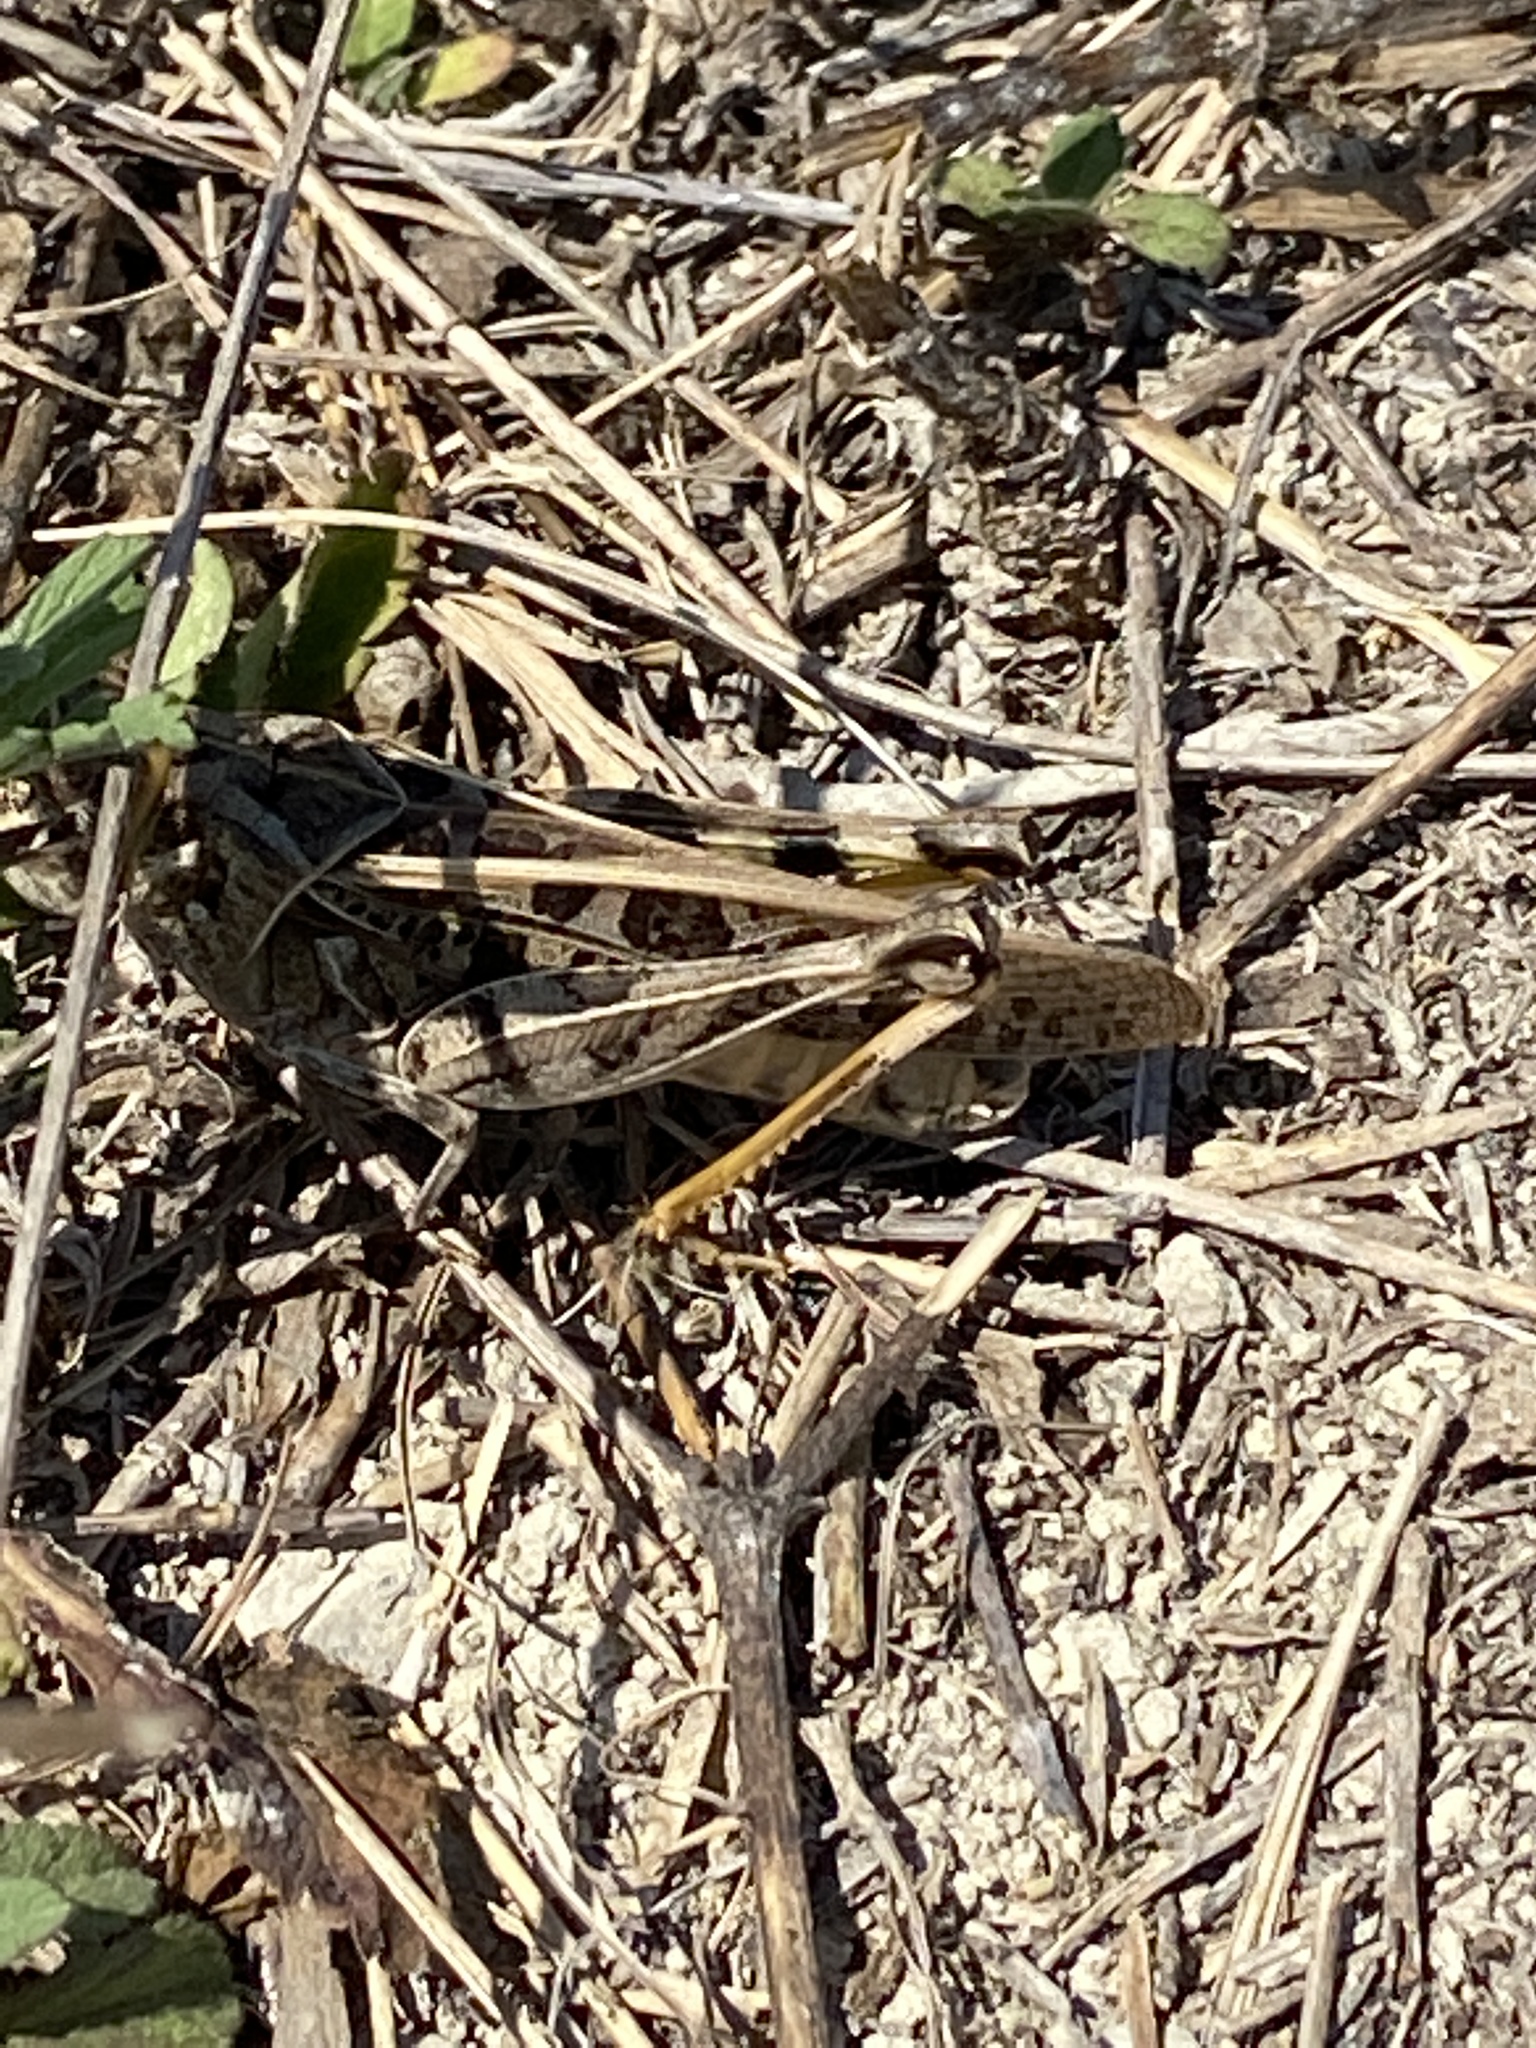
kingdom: Animalia
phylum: Arthropoda
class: Insecta
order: Orthoptera
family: Acrididae
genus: Hippiscus
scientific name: Hippiscus ocelote
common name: Wrinkled grasshopper
